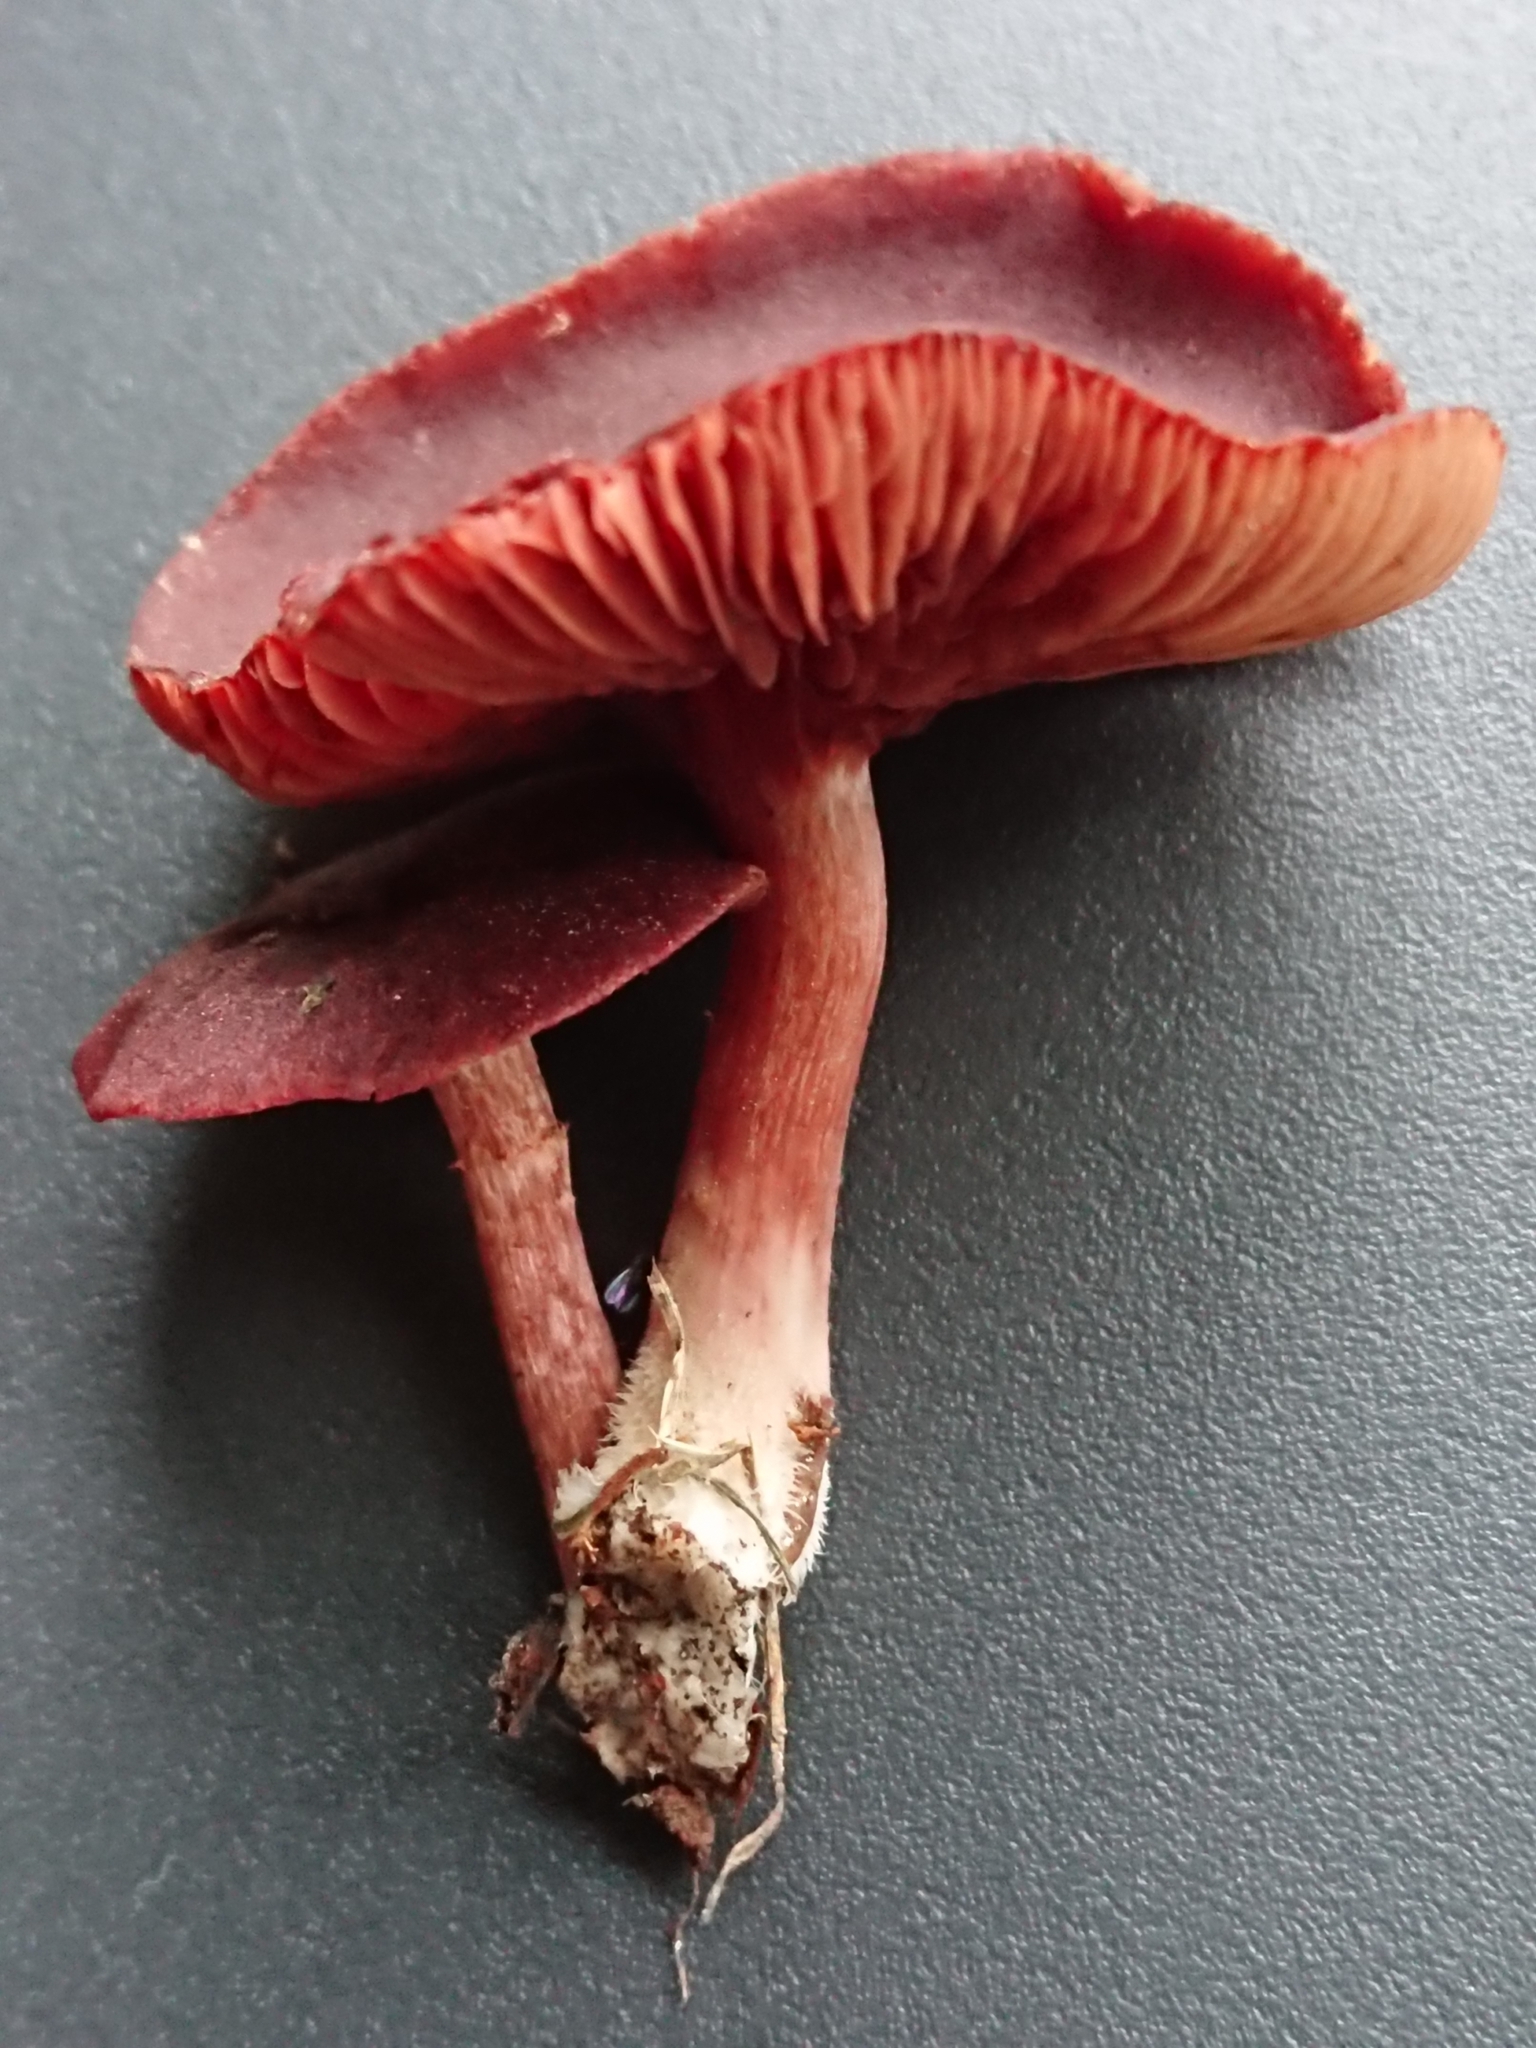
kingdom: Fungi
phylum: Basidiomycota
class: Agaricomycetes
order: Agaricales
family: Tubariaceae
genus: Tubaria
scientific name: Tubaria rufofulva
